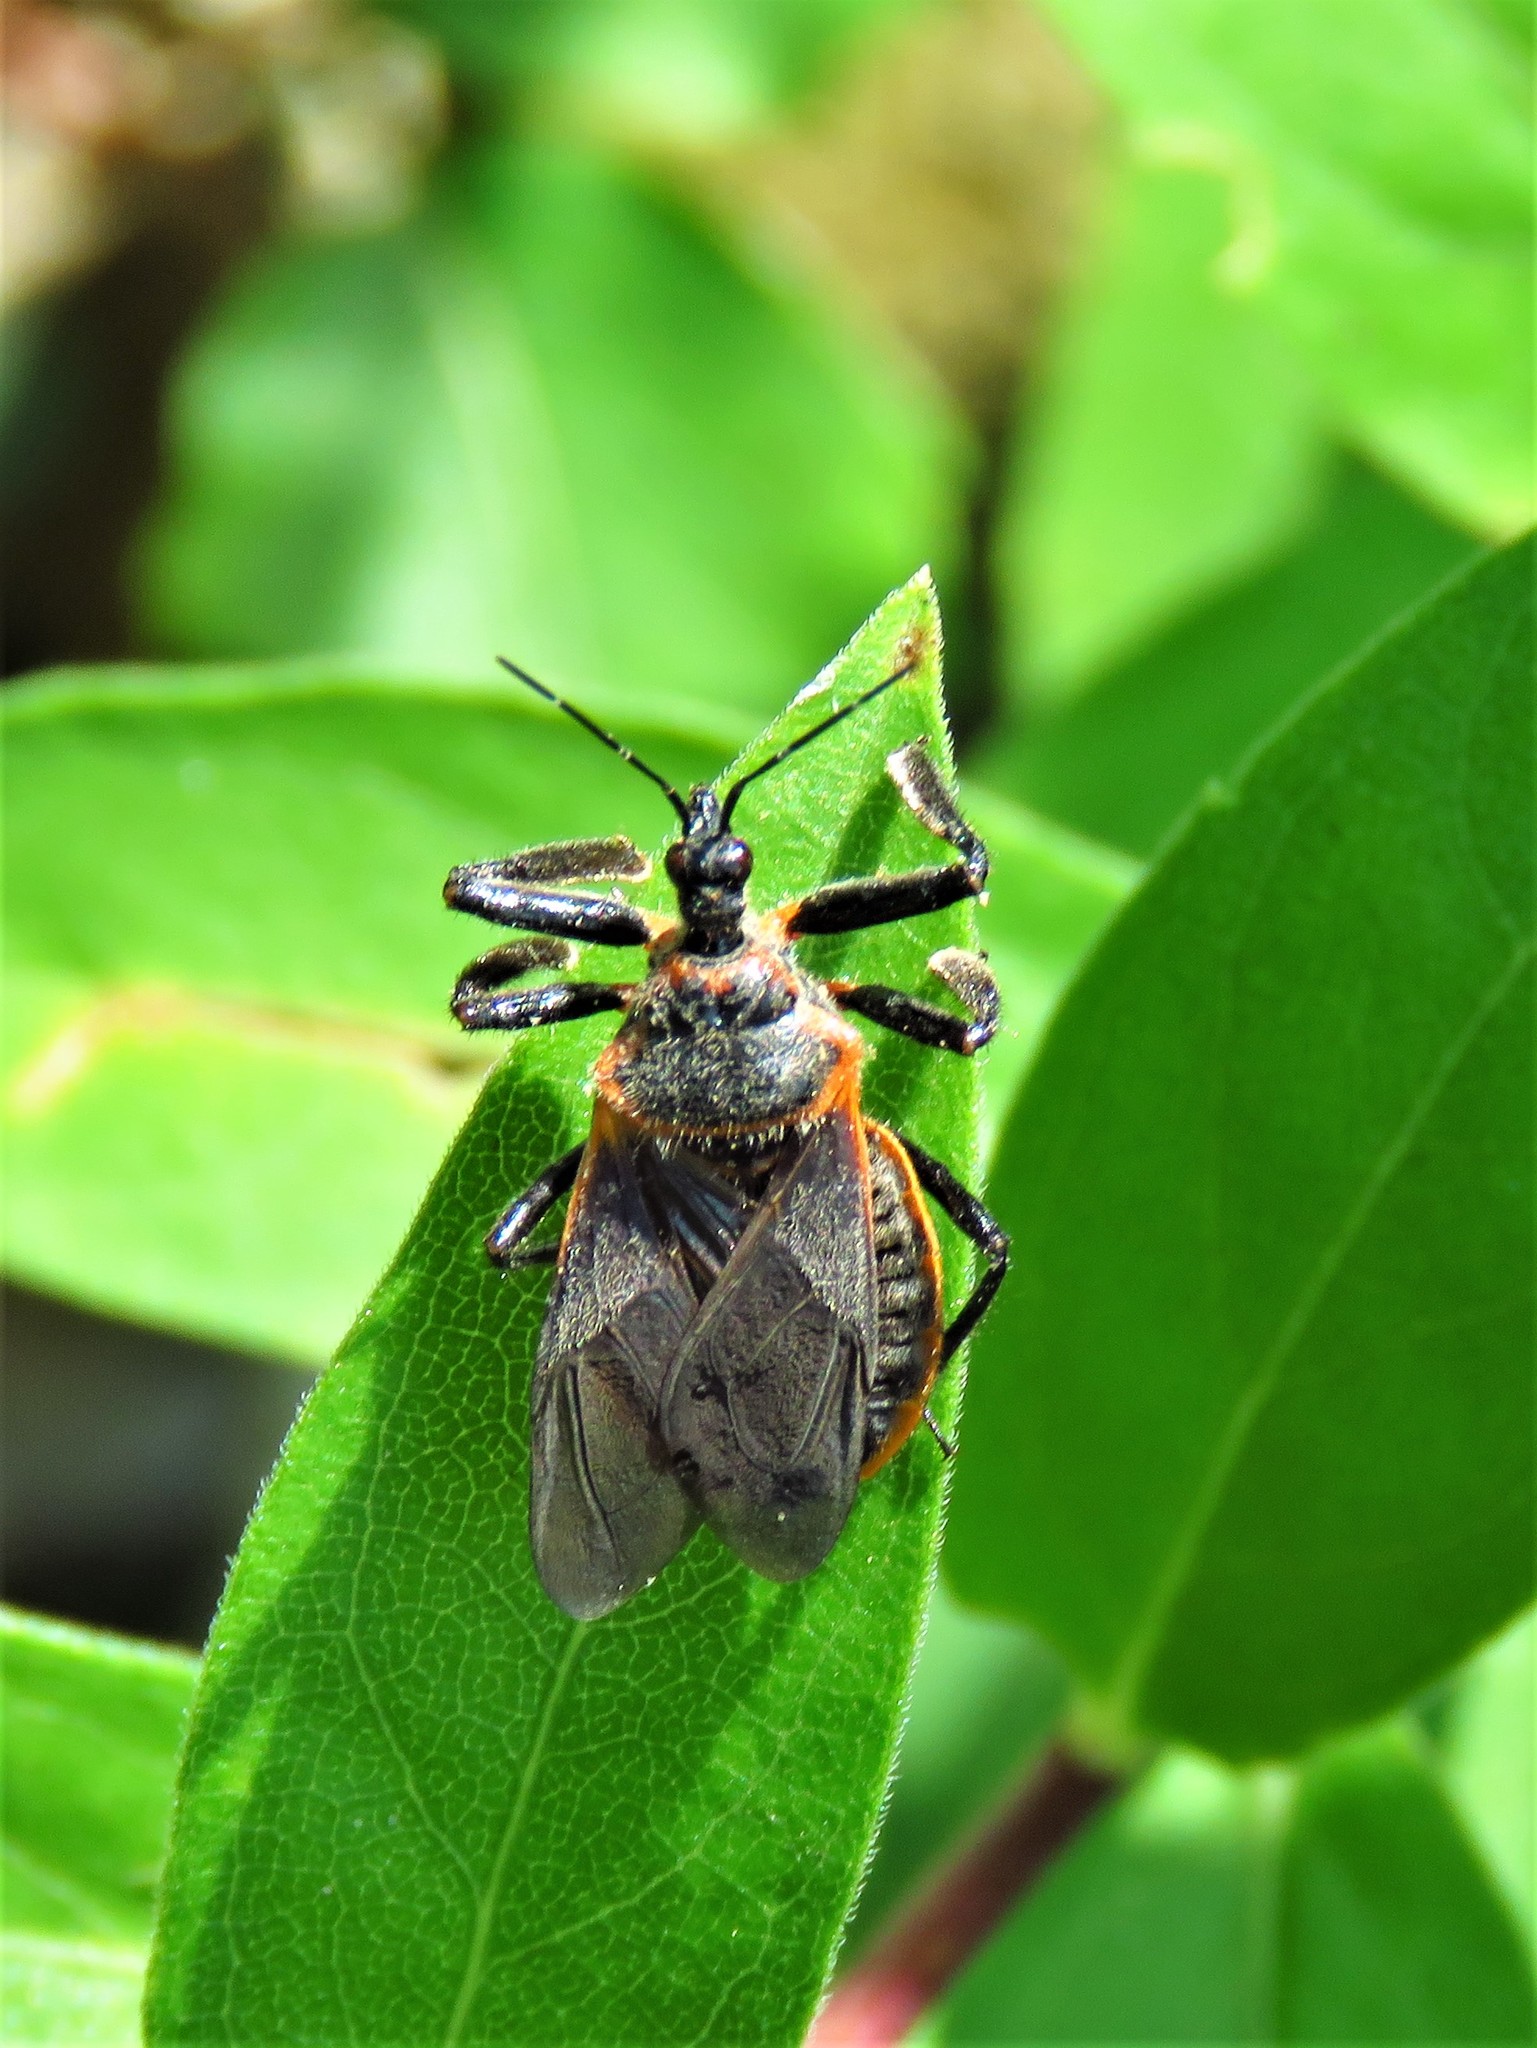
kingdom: Animalia
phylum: Arthropoda
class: Insecta
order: Hemiptera
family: Reduviidae
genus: Apiomerus
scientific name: Apiomerus crassipes
